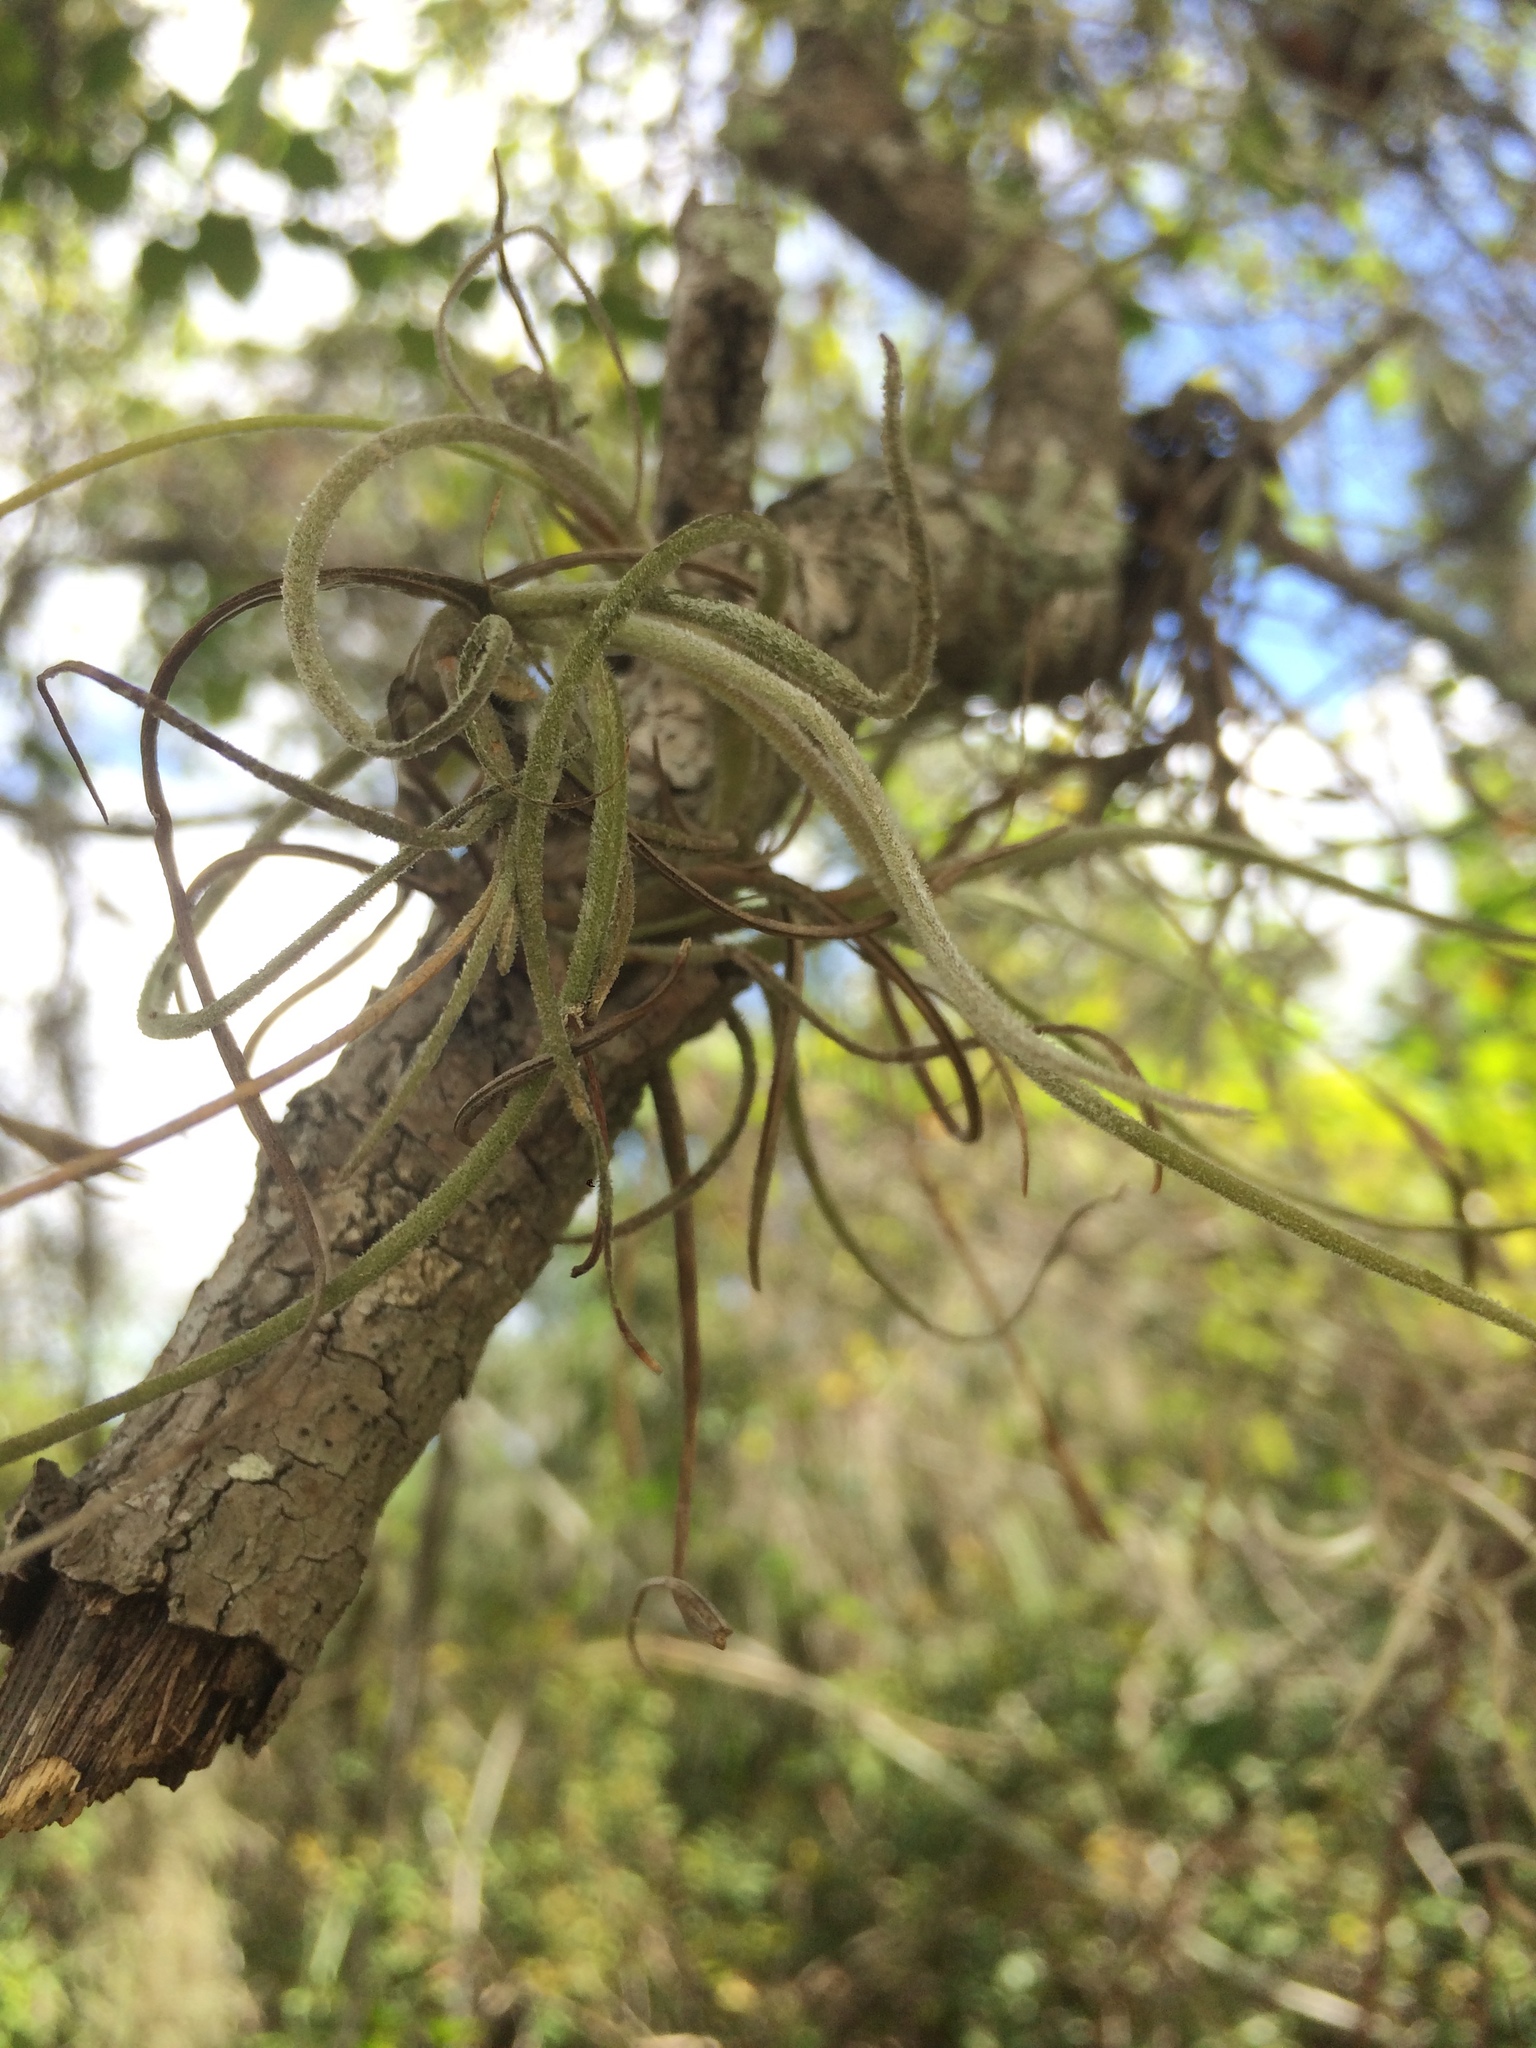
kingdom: Plantae
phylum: Tracheophyta
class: Liliopsida
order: Poales
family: Bromeliaceae
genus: Tillandsia
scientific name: Tillandsia recurvata
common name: Small ballmoss
